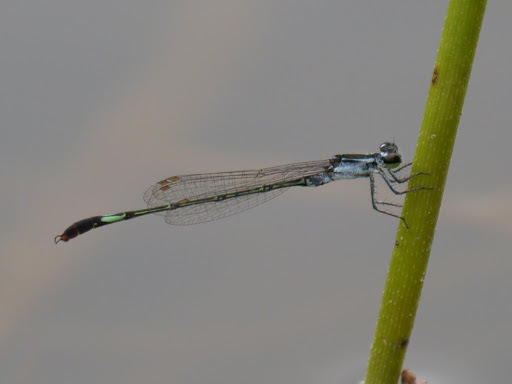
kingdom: Animalia
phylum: Arthropoda
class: Insecta
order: Odonata
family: Coenagrionidae
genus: Agriocnemis
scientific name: Agriocnemis forcipata
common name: Forceps wisp
